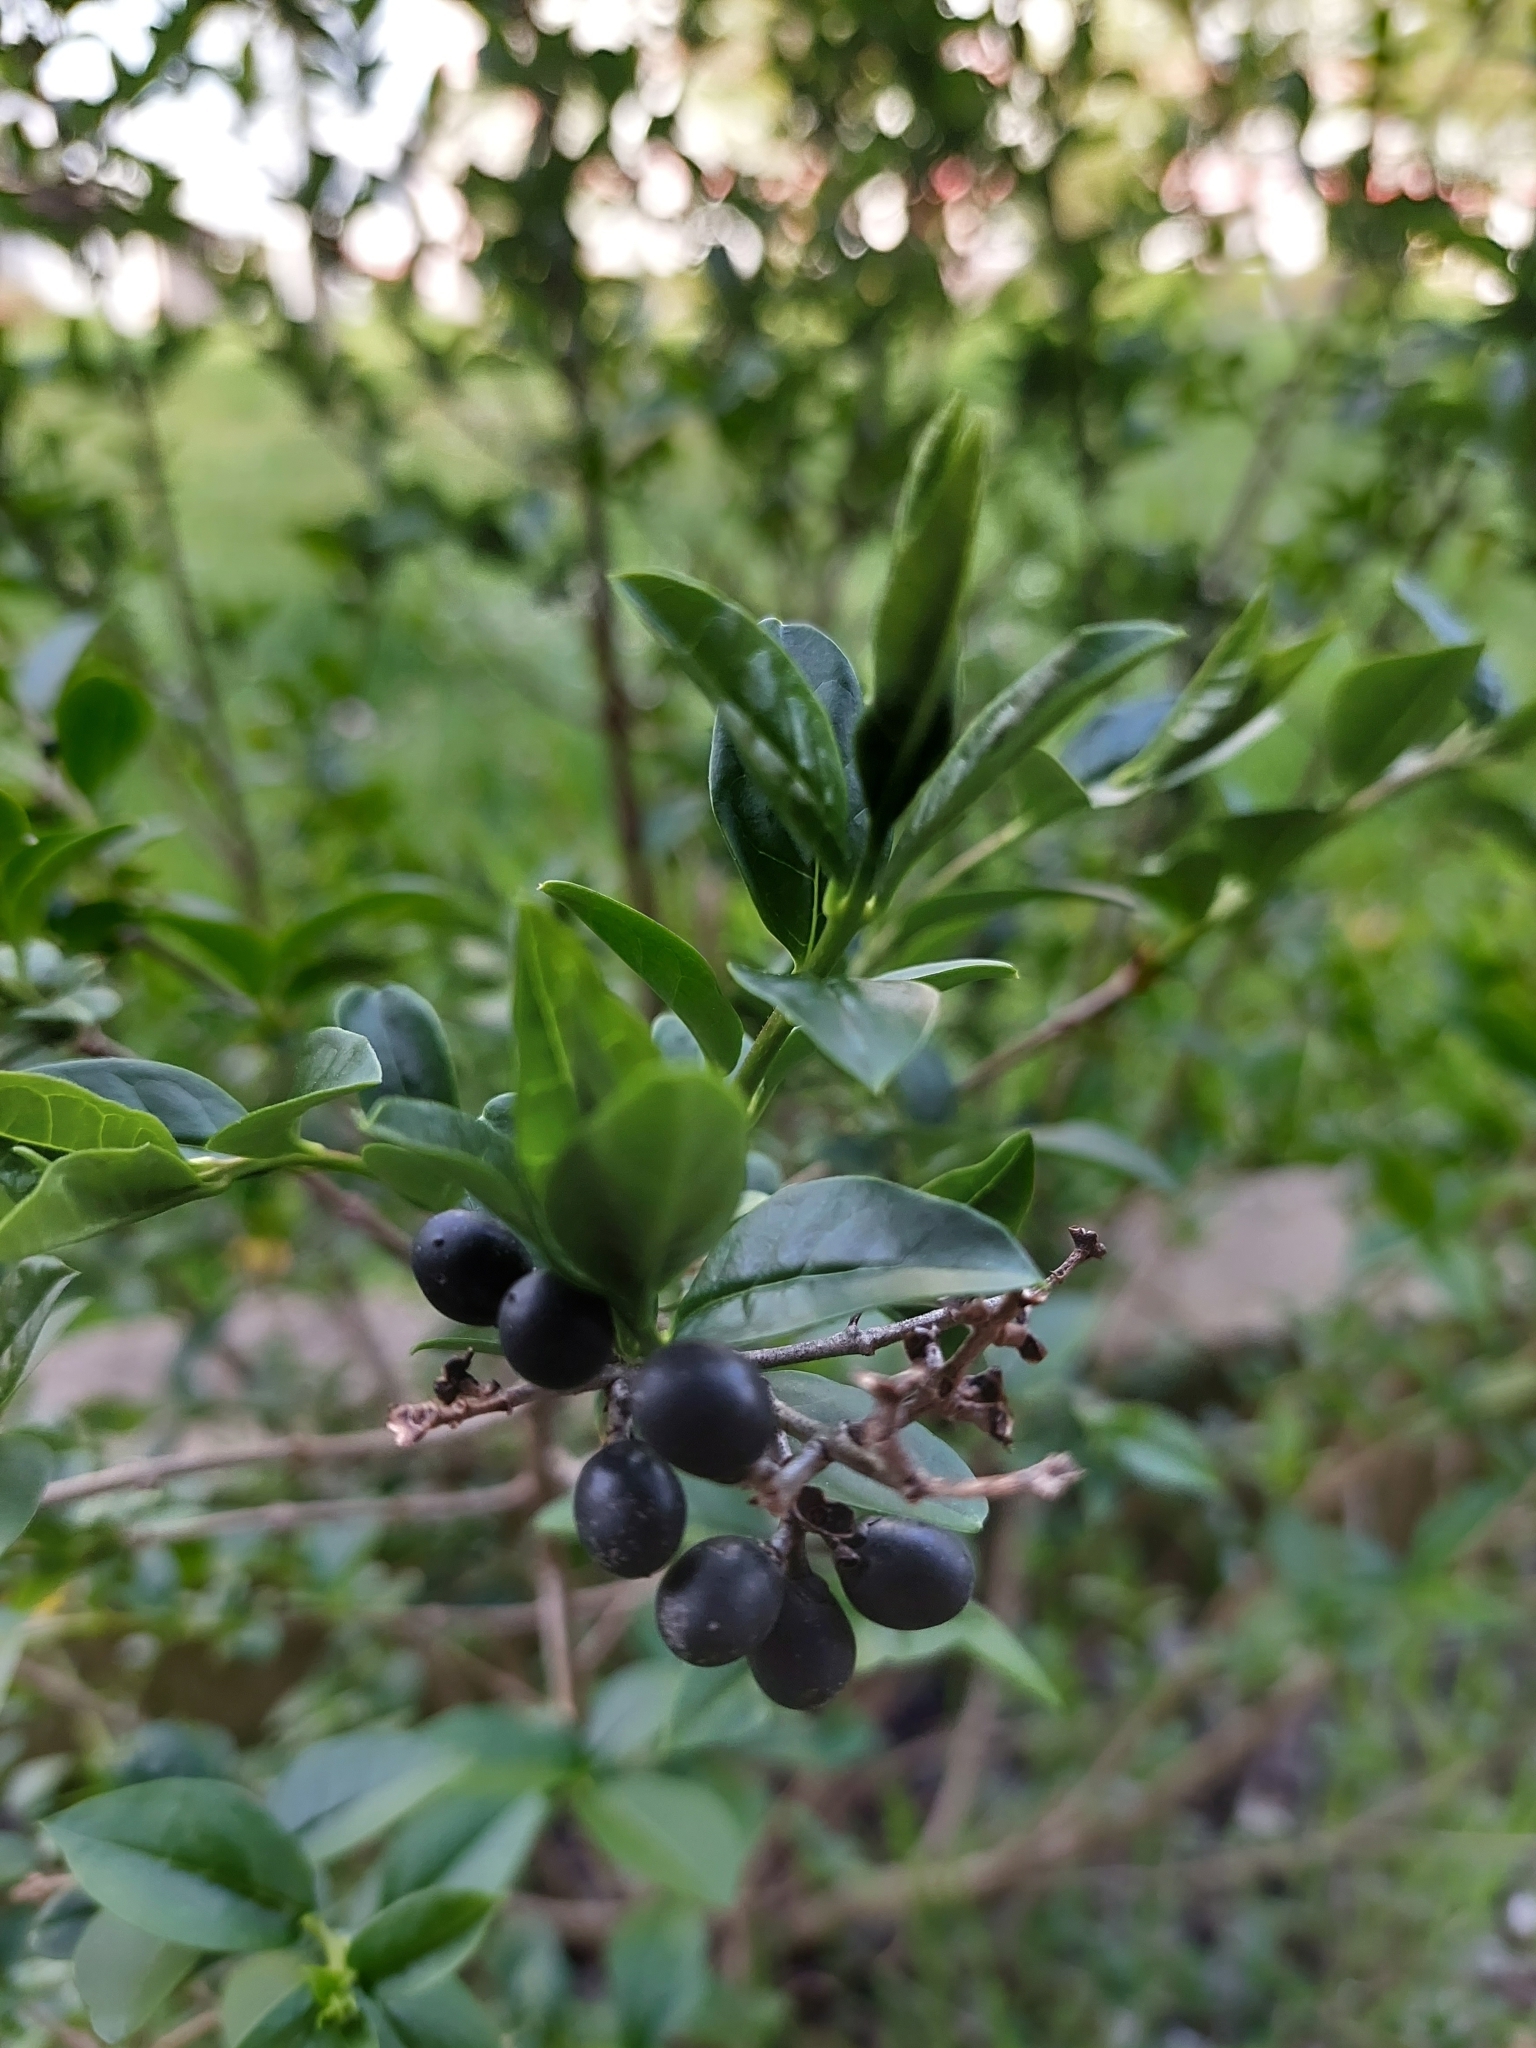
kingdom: Plantae
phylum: Tracheophyta
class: Magnoliopsida
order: Lamiales
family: Oleaceae
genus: Ligustrum
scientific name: Ligustrum vulgare
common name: Wild privet
